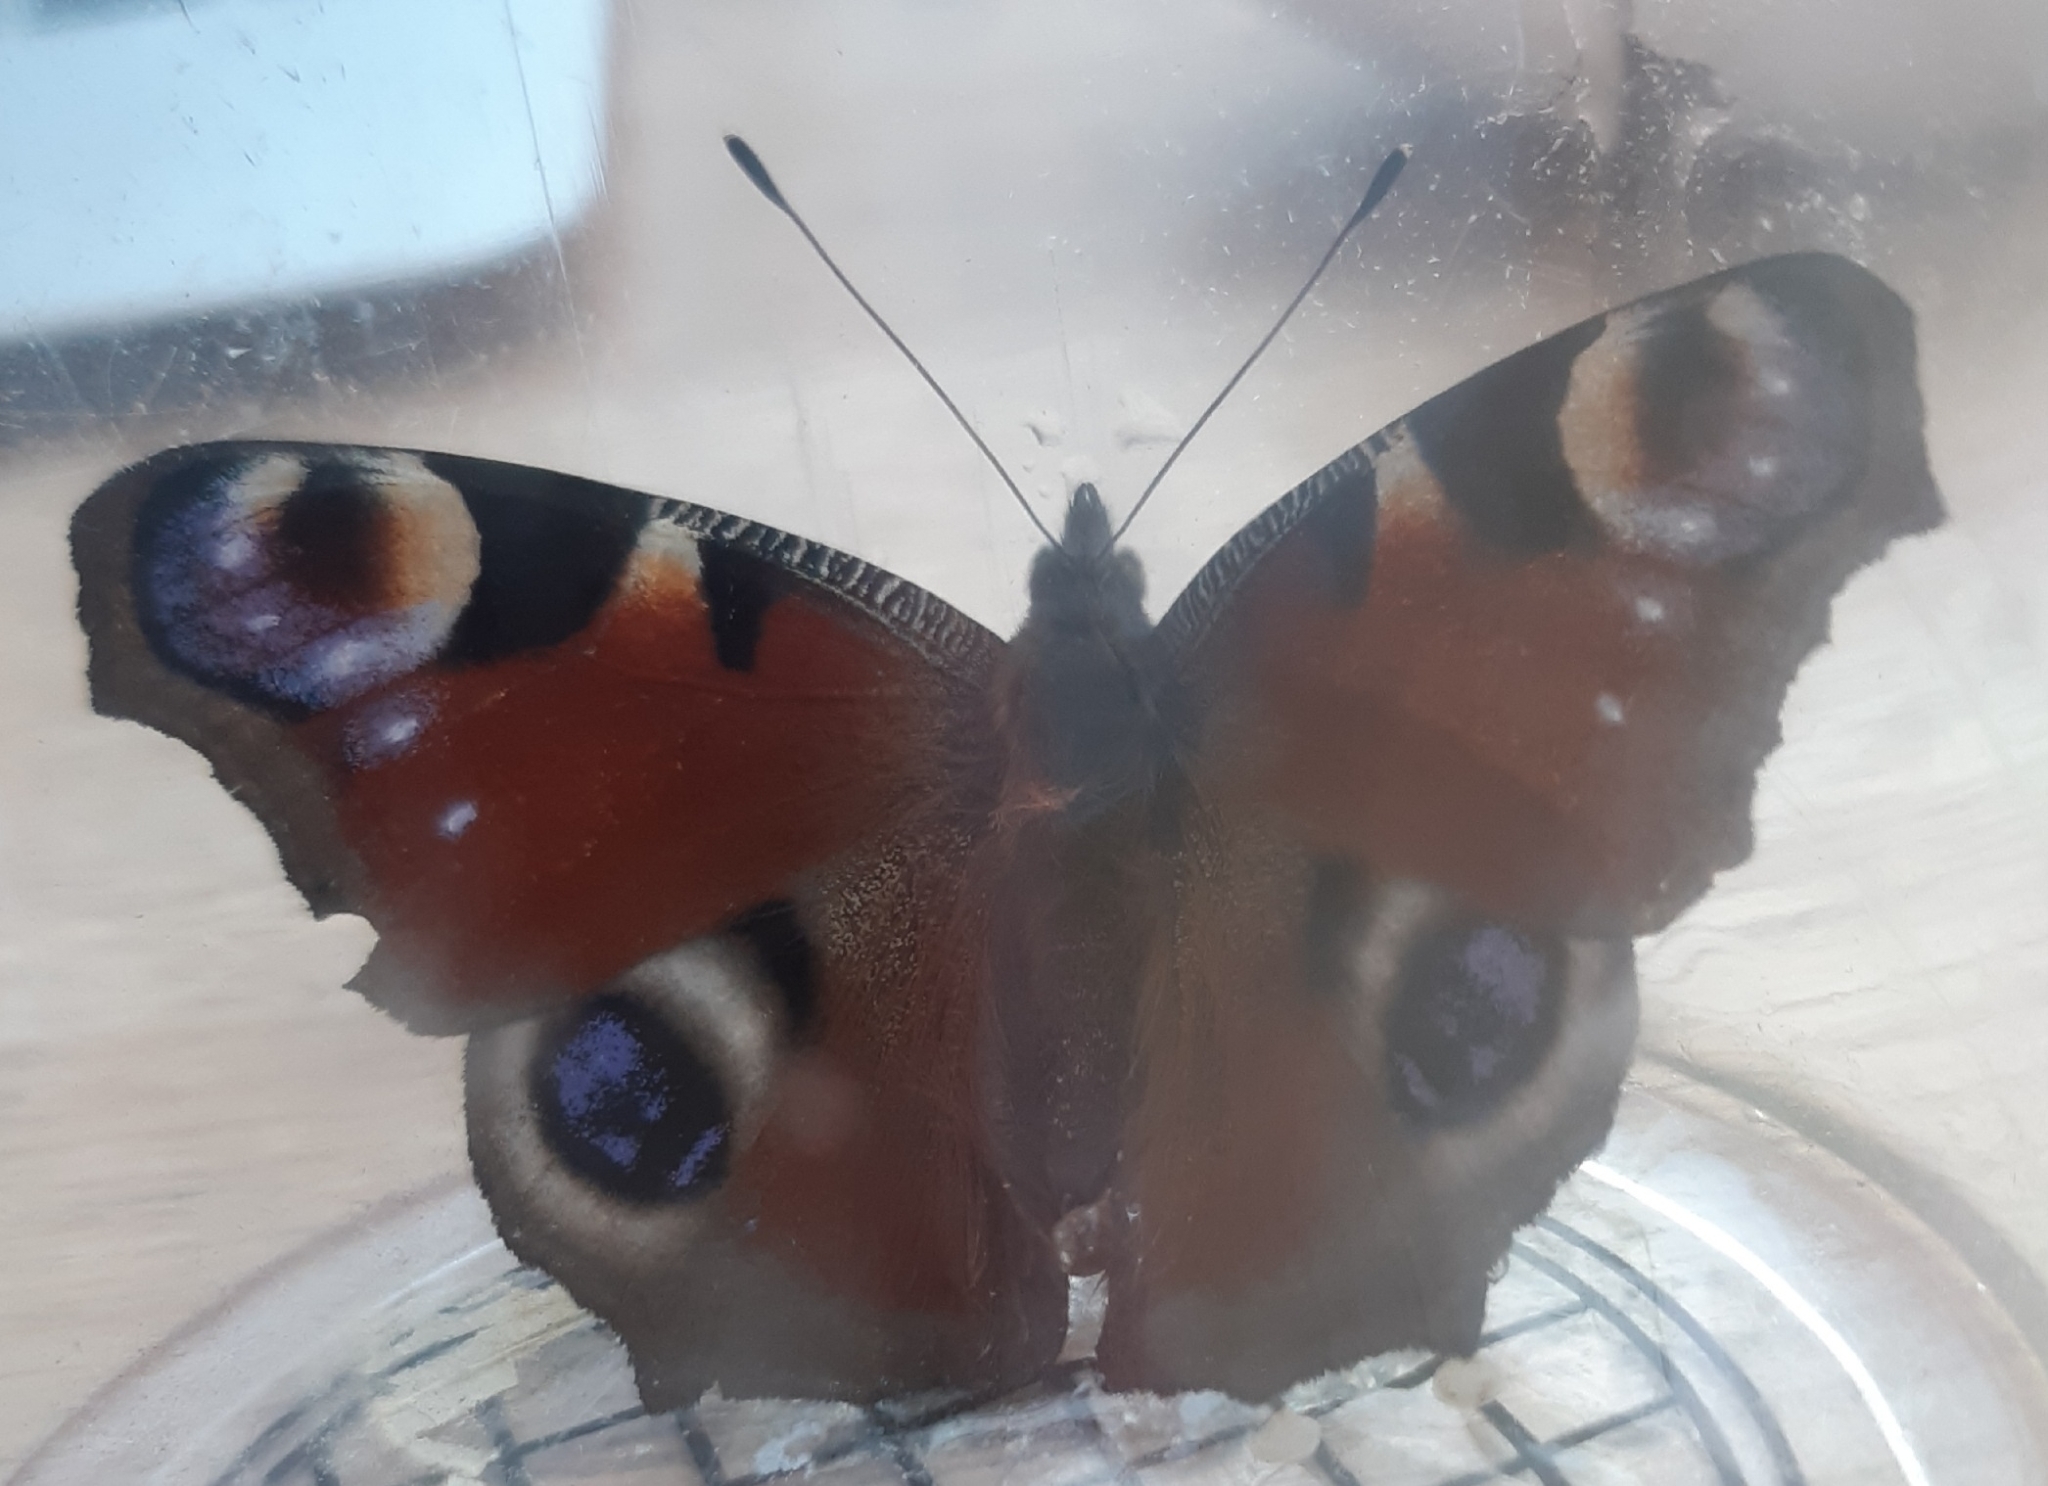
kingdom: Animalia
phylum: Arthropoda
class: Insecta
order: Lepidoptera
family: Nymphalidae
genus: Aglais
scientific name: Aglais io
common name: Peacock
